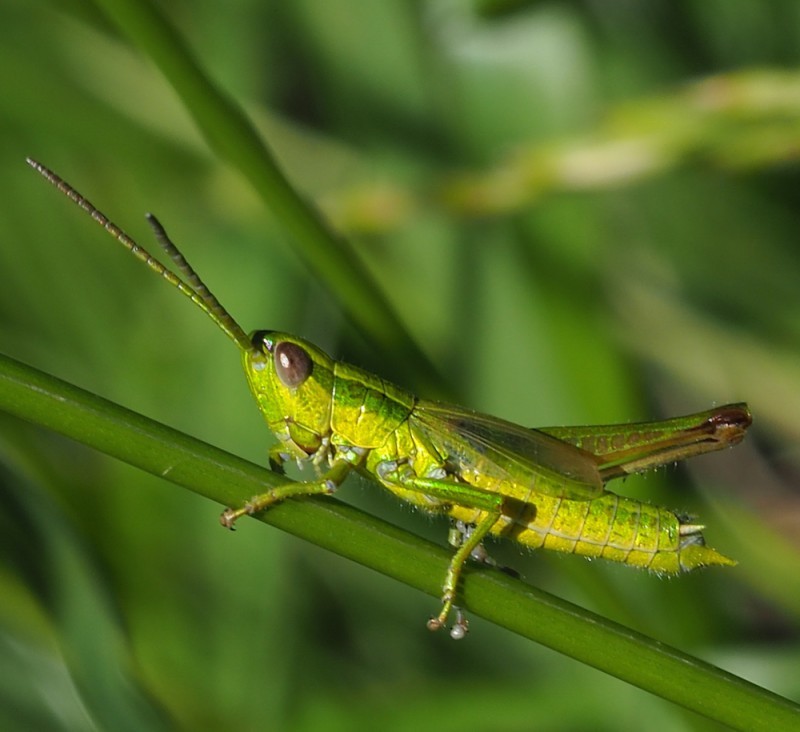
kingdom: Animalia
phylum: Arthropoda
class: Insecta
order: Orthoptera
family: Acrididae
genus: Euthystira
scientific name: Euthystira brachyptera
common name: Small gold grasshopper
